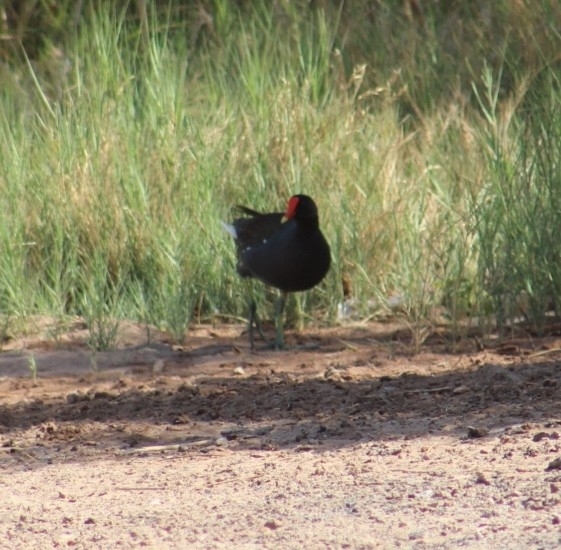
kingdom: Animalia
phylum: Chordata
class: Aves
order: Gruiformes
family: Rallidae
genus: Gallinula
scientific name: Gallinula chloropus
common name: Common moorhen
